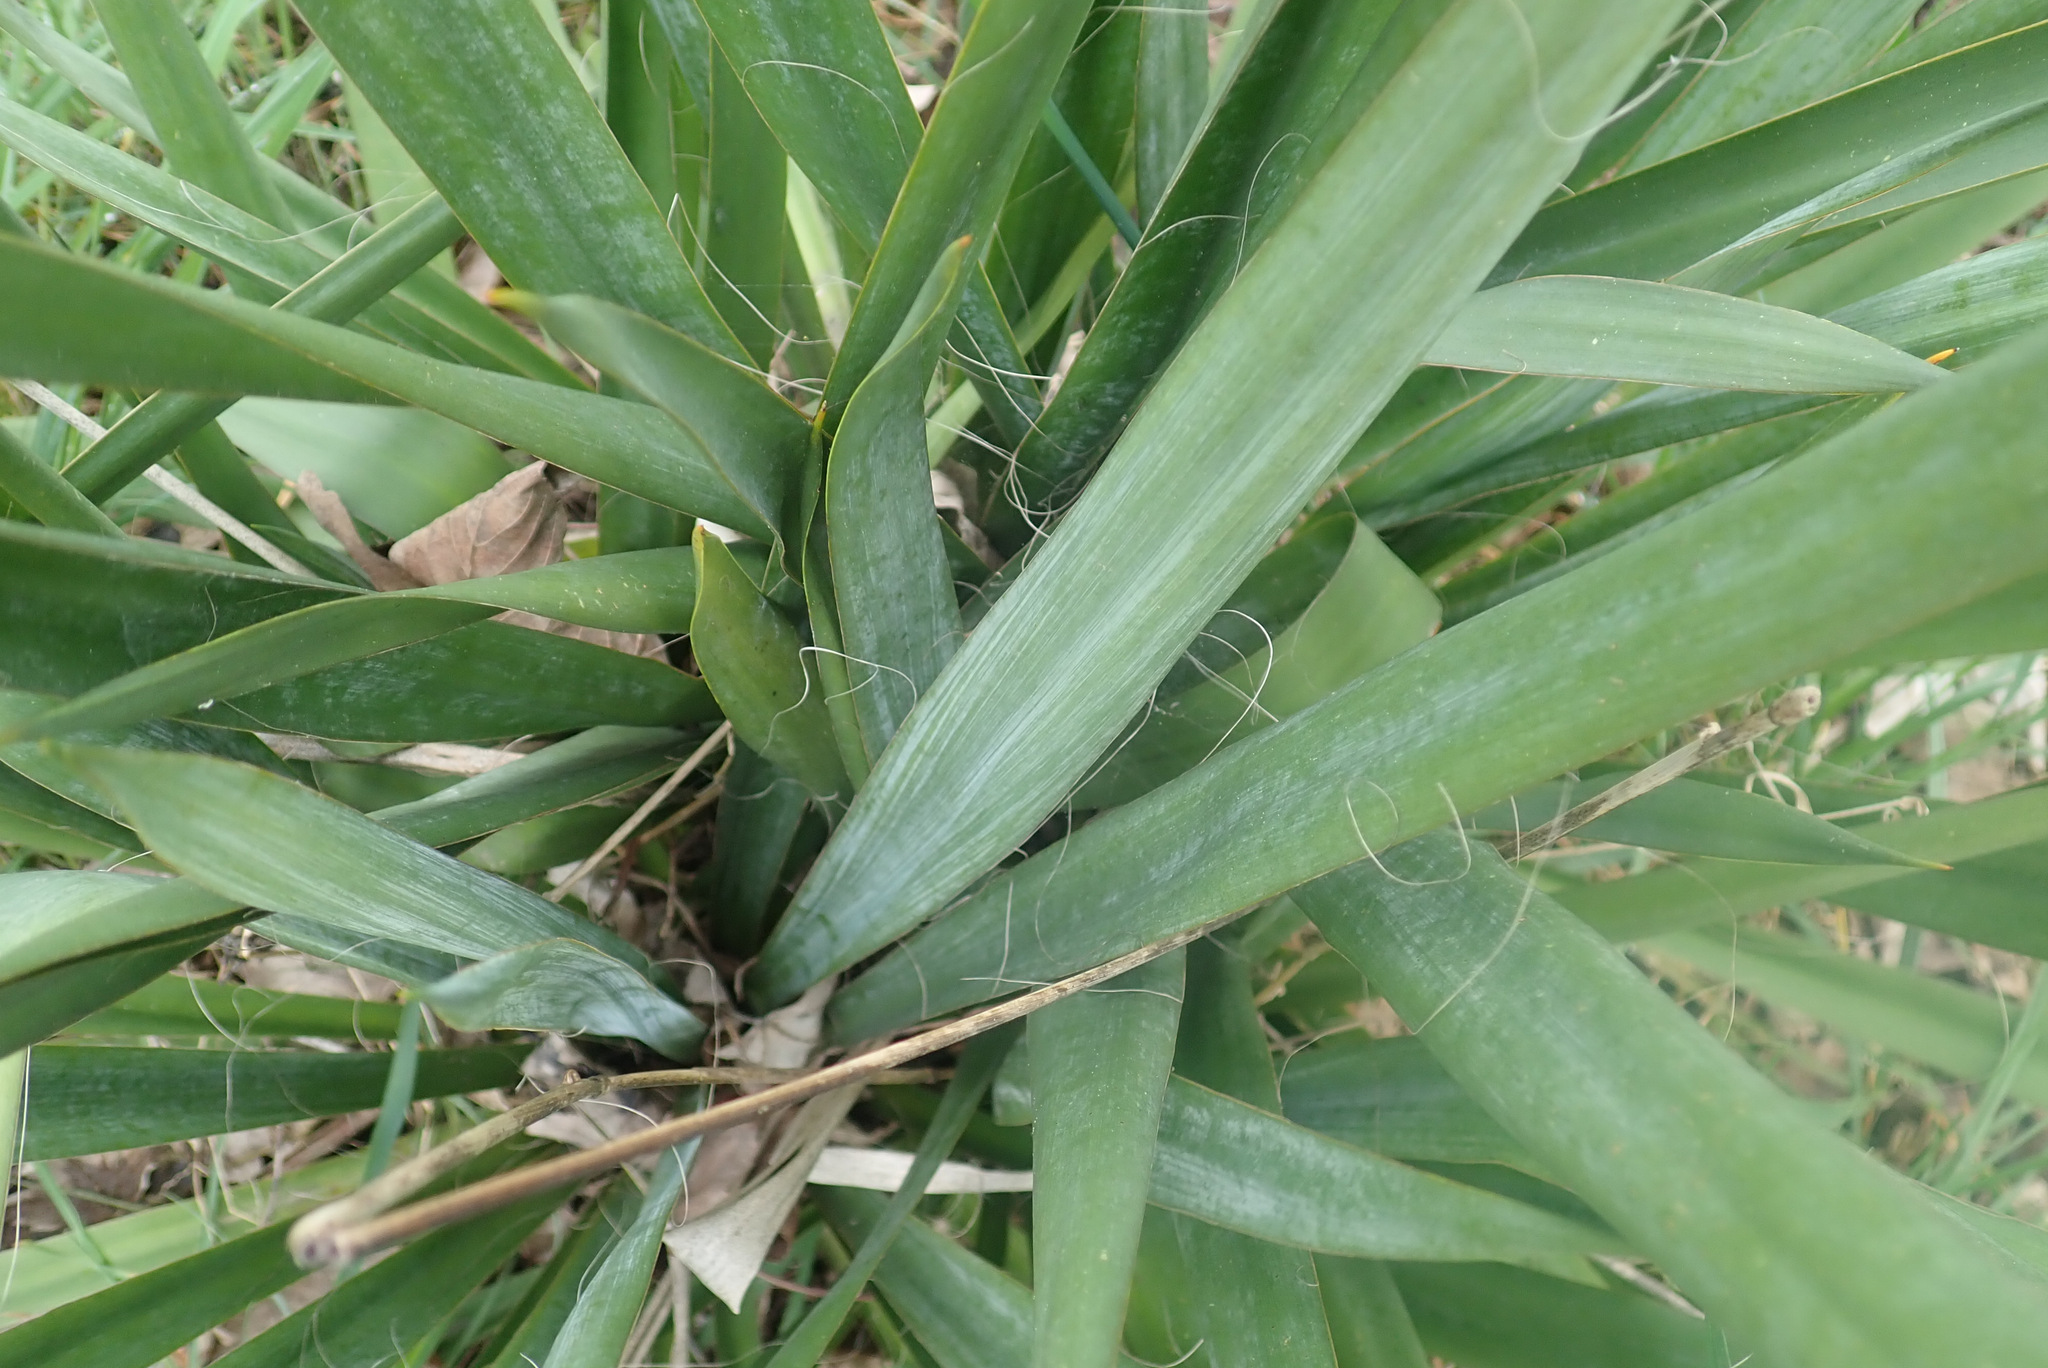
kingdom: Plantae
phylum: Tracheophyta
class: Liliopsida
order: Asparagales
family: Asparagaceae
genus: Yucca
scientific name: Yucca flaccida
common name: Adam's-needle
